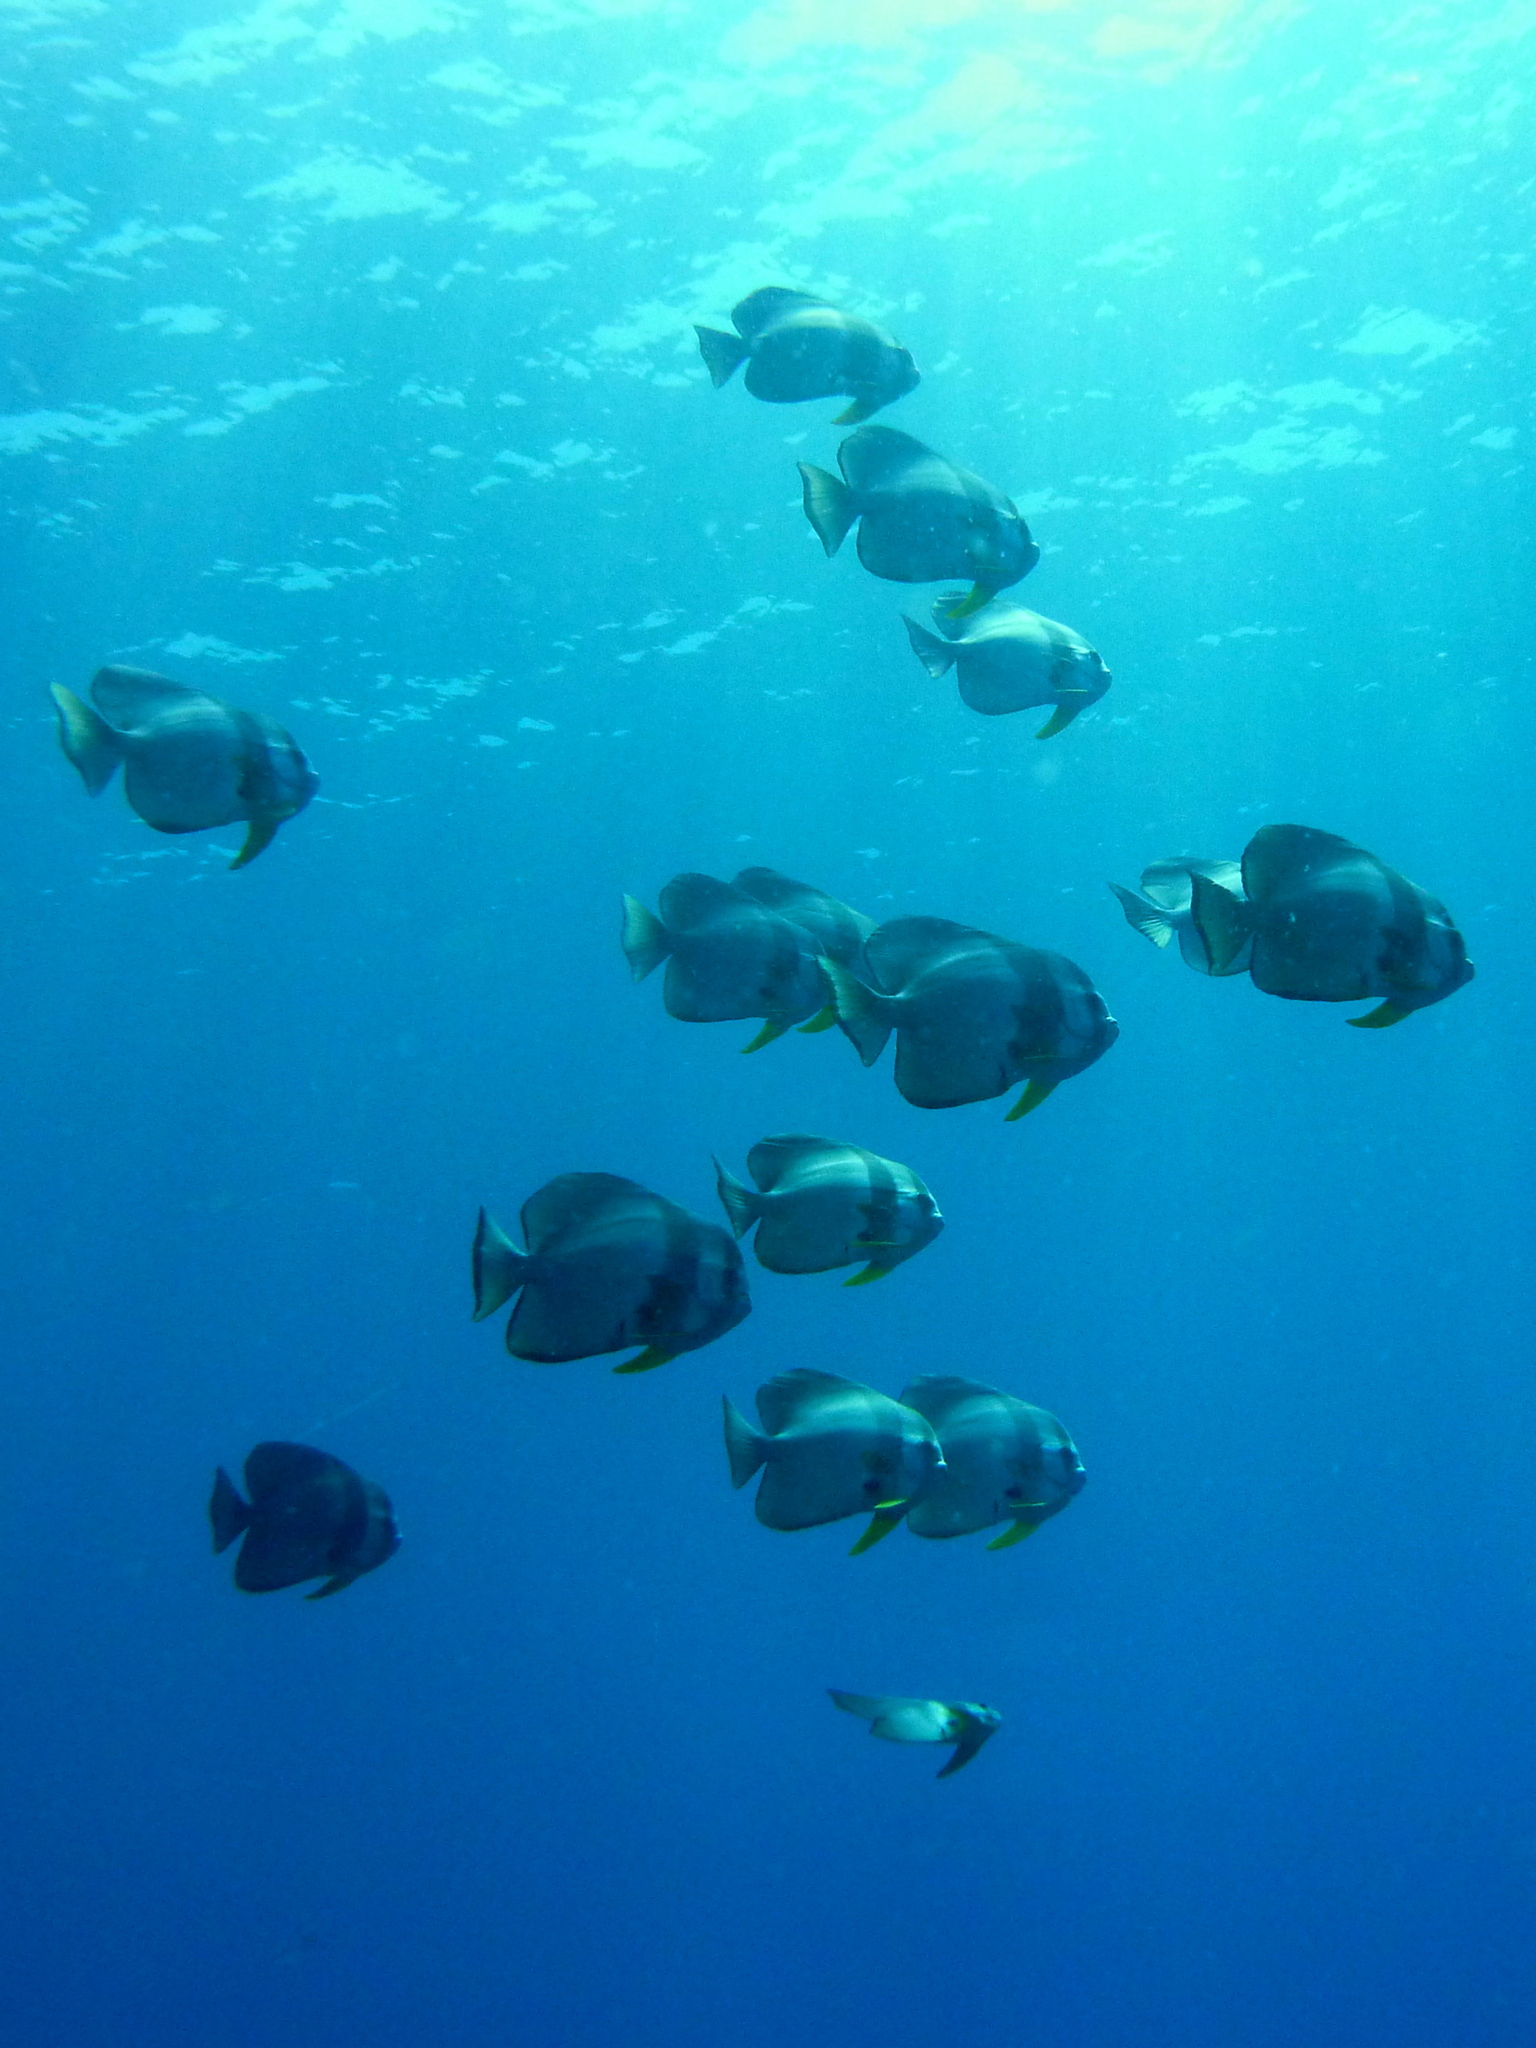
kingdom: Animalia
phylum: Chordata
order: Perciformes
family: Ephippidae
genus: Platax
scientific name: Platax teira
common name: Longfin baitfish
